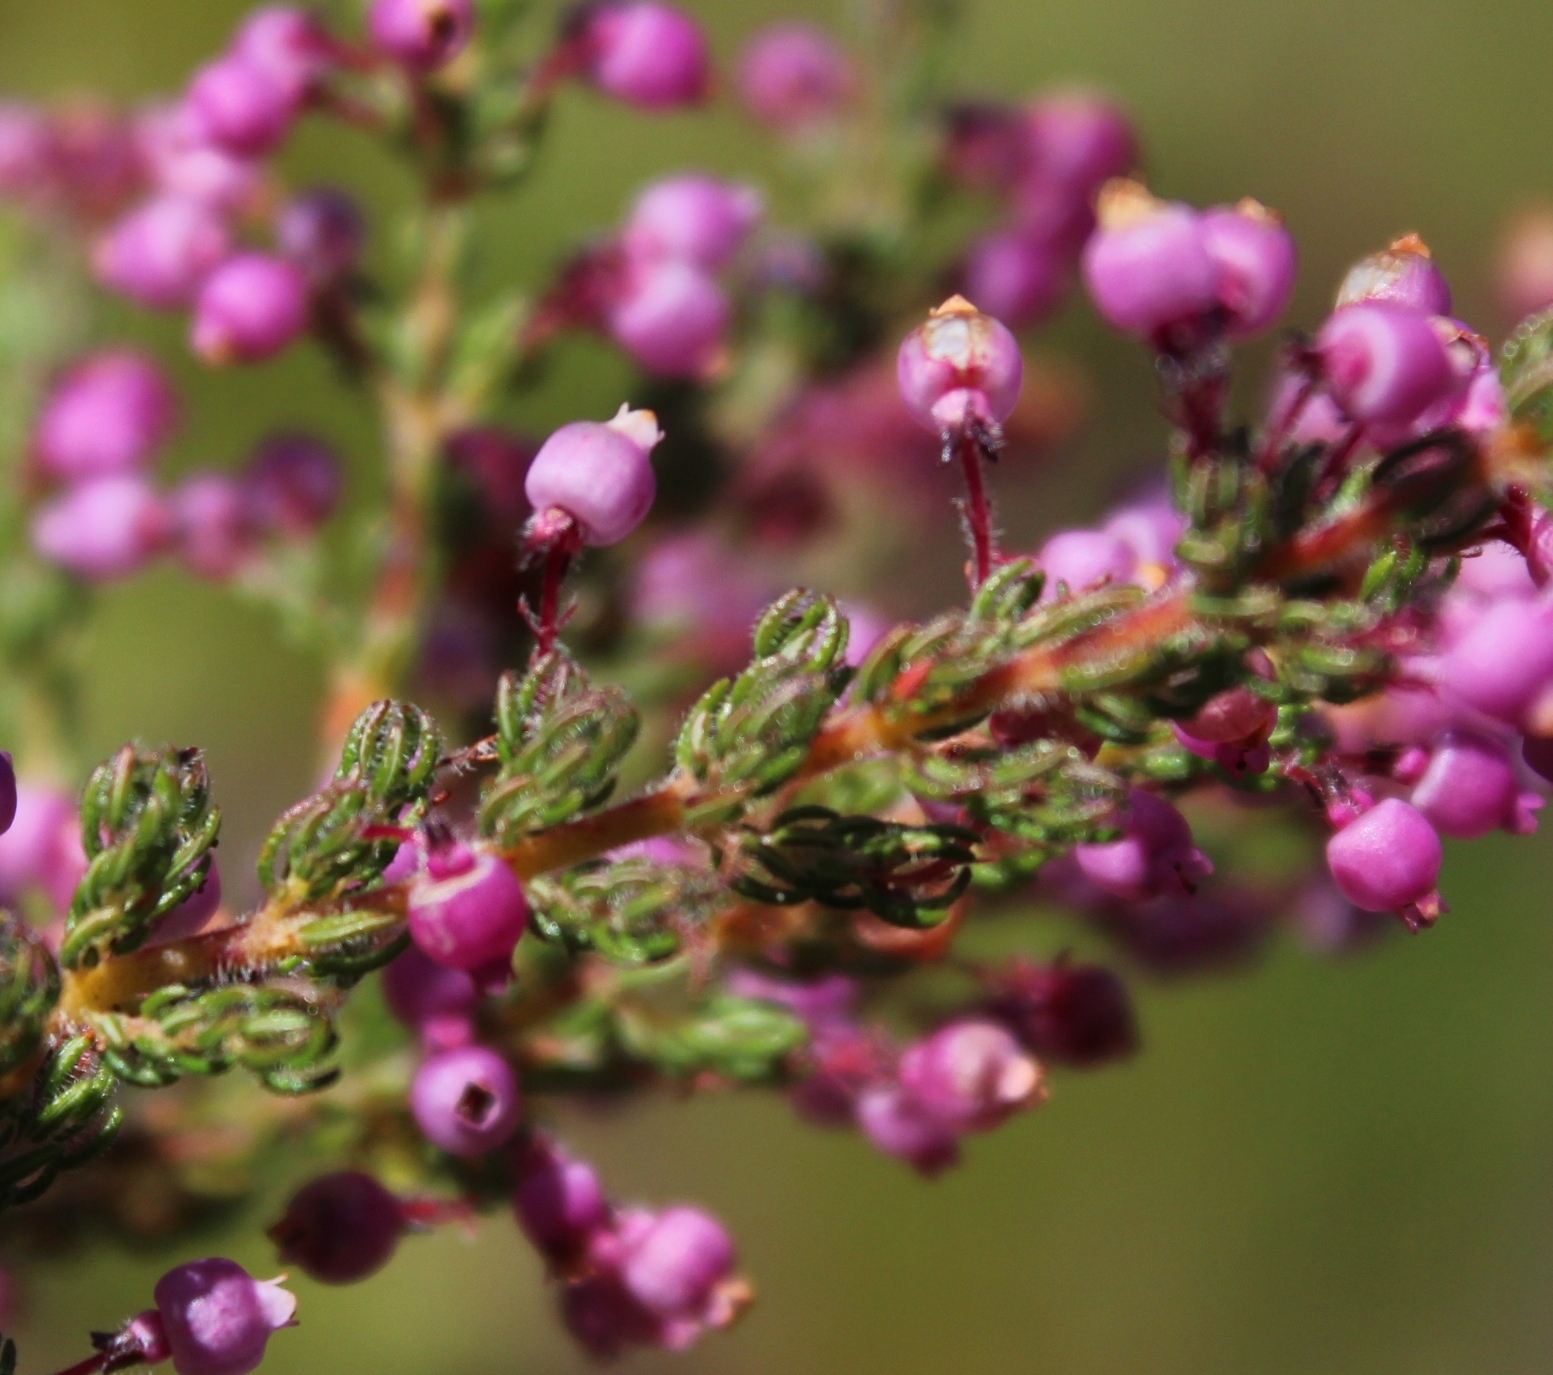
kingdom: Plantae
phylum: Tracheophyta
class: Magnoliopsida
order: Ericales
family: Ericaceae
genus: Erica
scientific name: Erica bergiana
